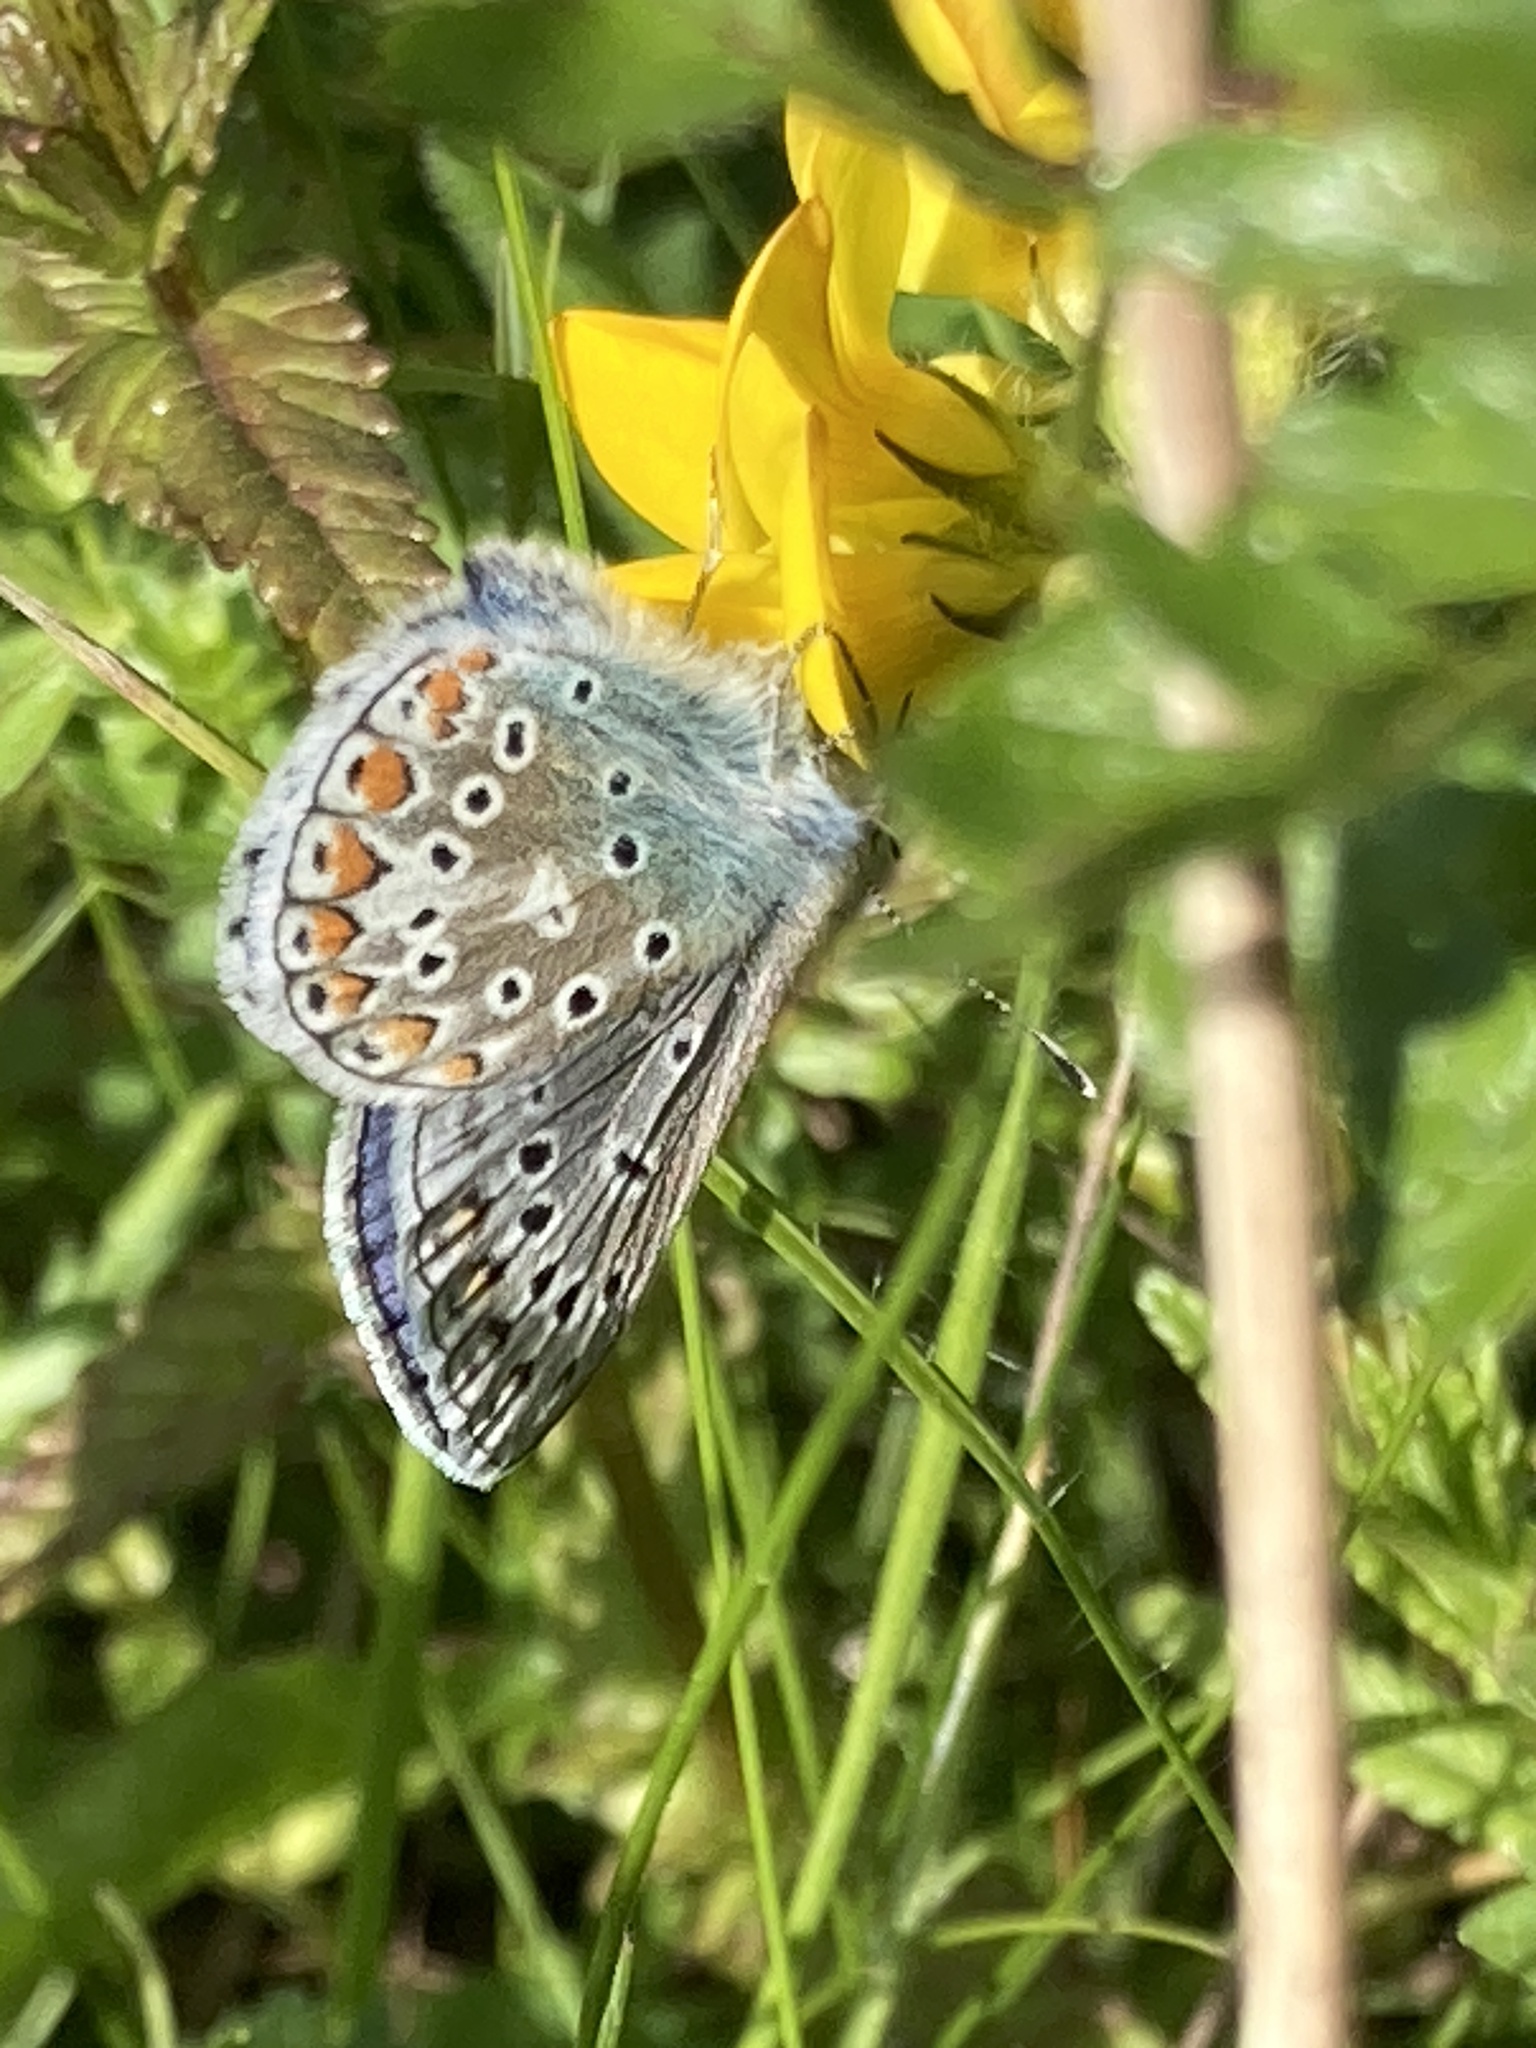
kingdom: Animalia
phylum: Arthropoda
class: Insecta
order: Lepidoptera
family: Lycaenidae
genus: Polyommatus
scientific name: Polyommatus icarus
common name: Common blue
